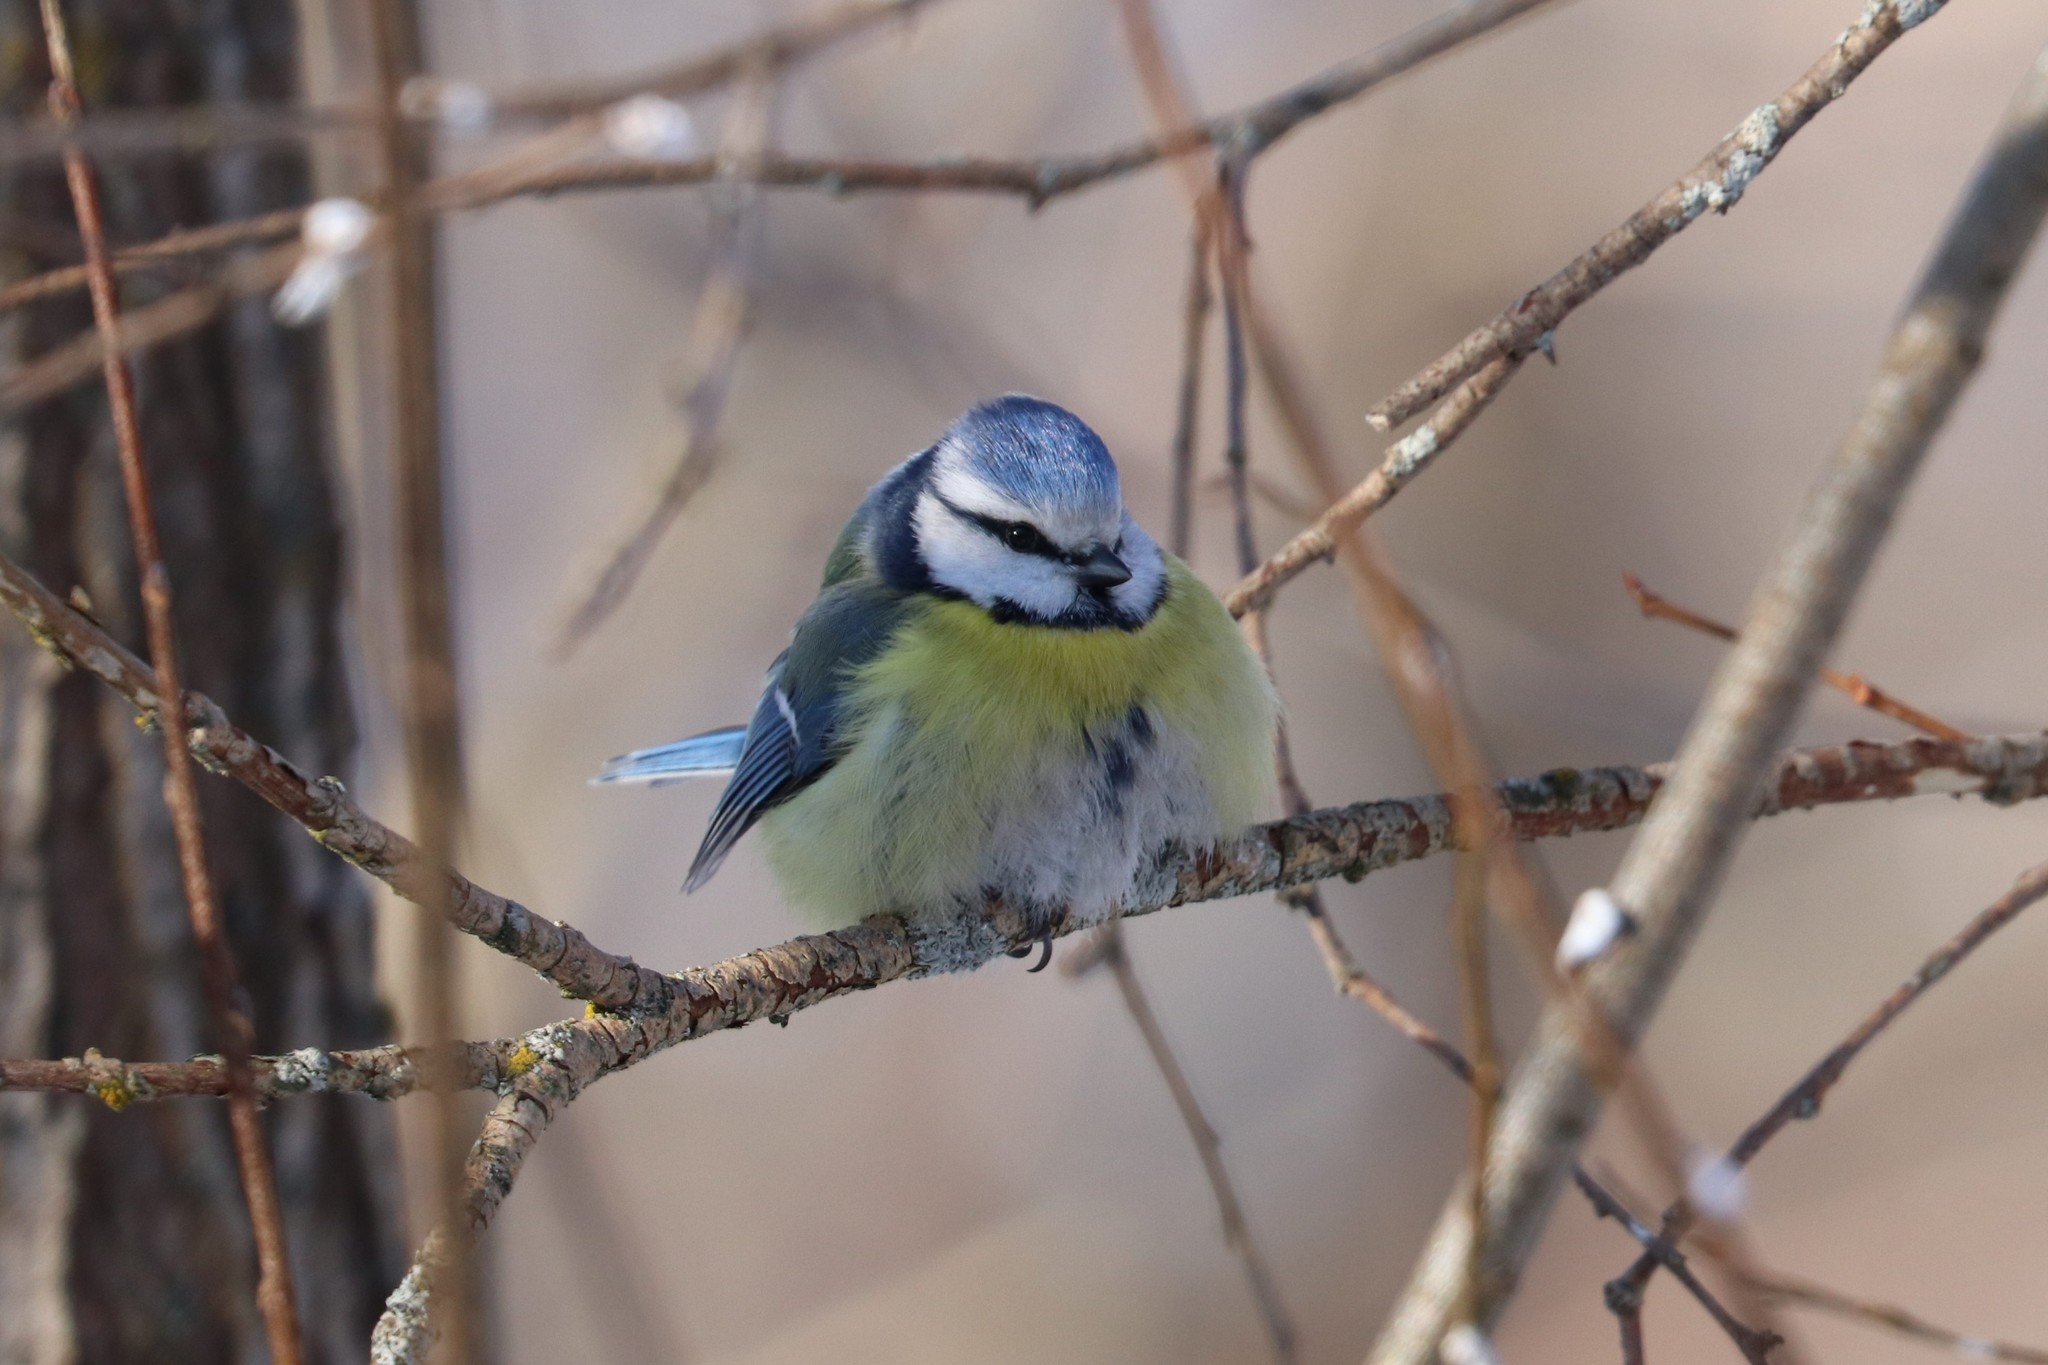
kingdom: Animalia
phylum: Chordata
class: Aves
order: Passeriformes
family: Paridae
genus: Cyanistes
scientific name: Cyanistes caeruleus
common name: Eurasian blue tit
